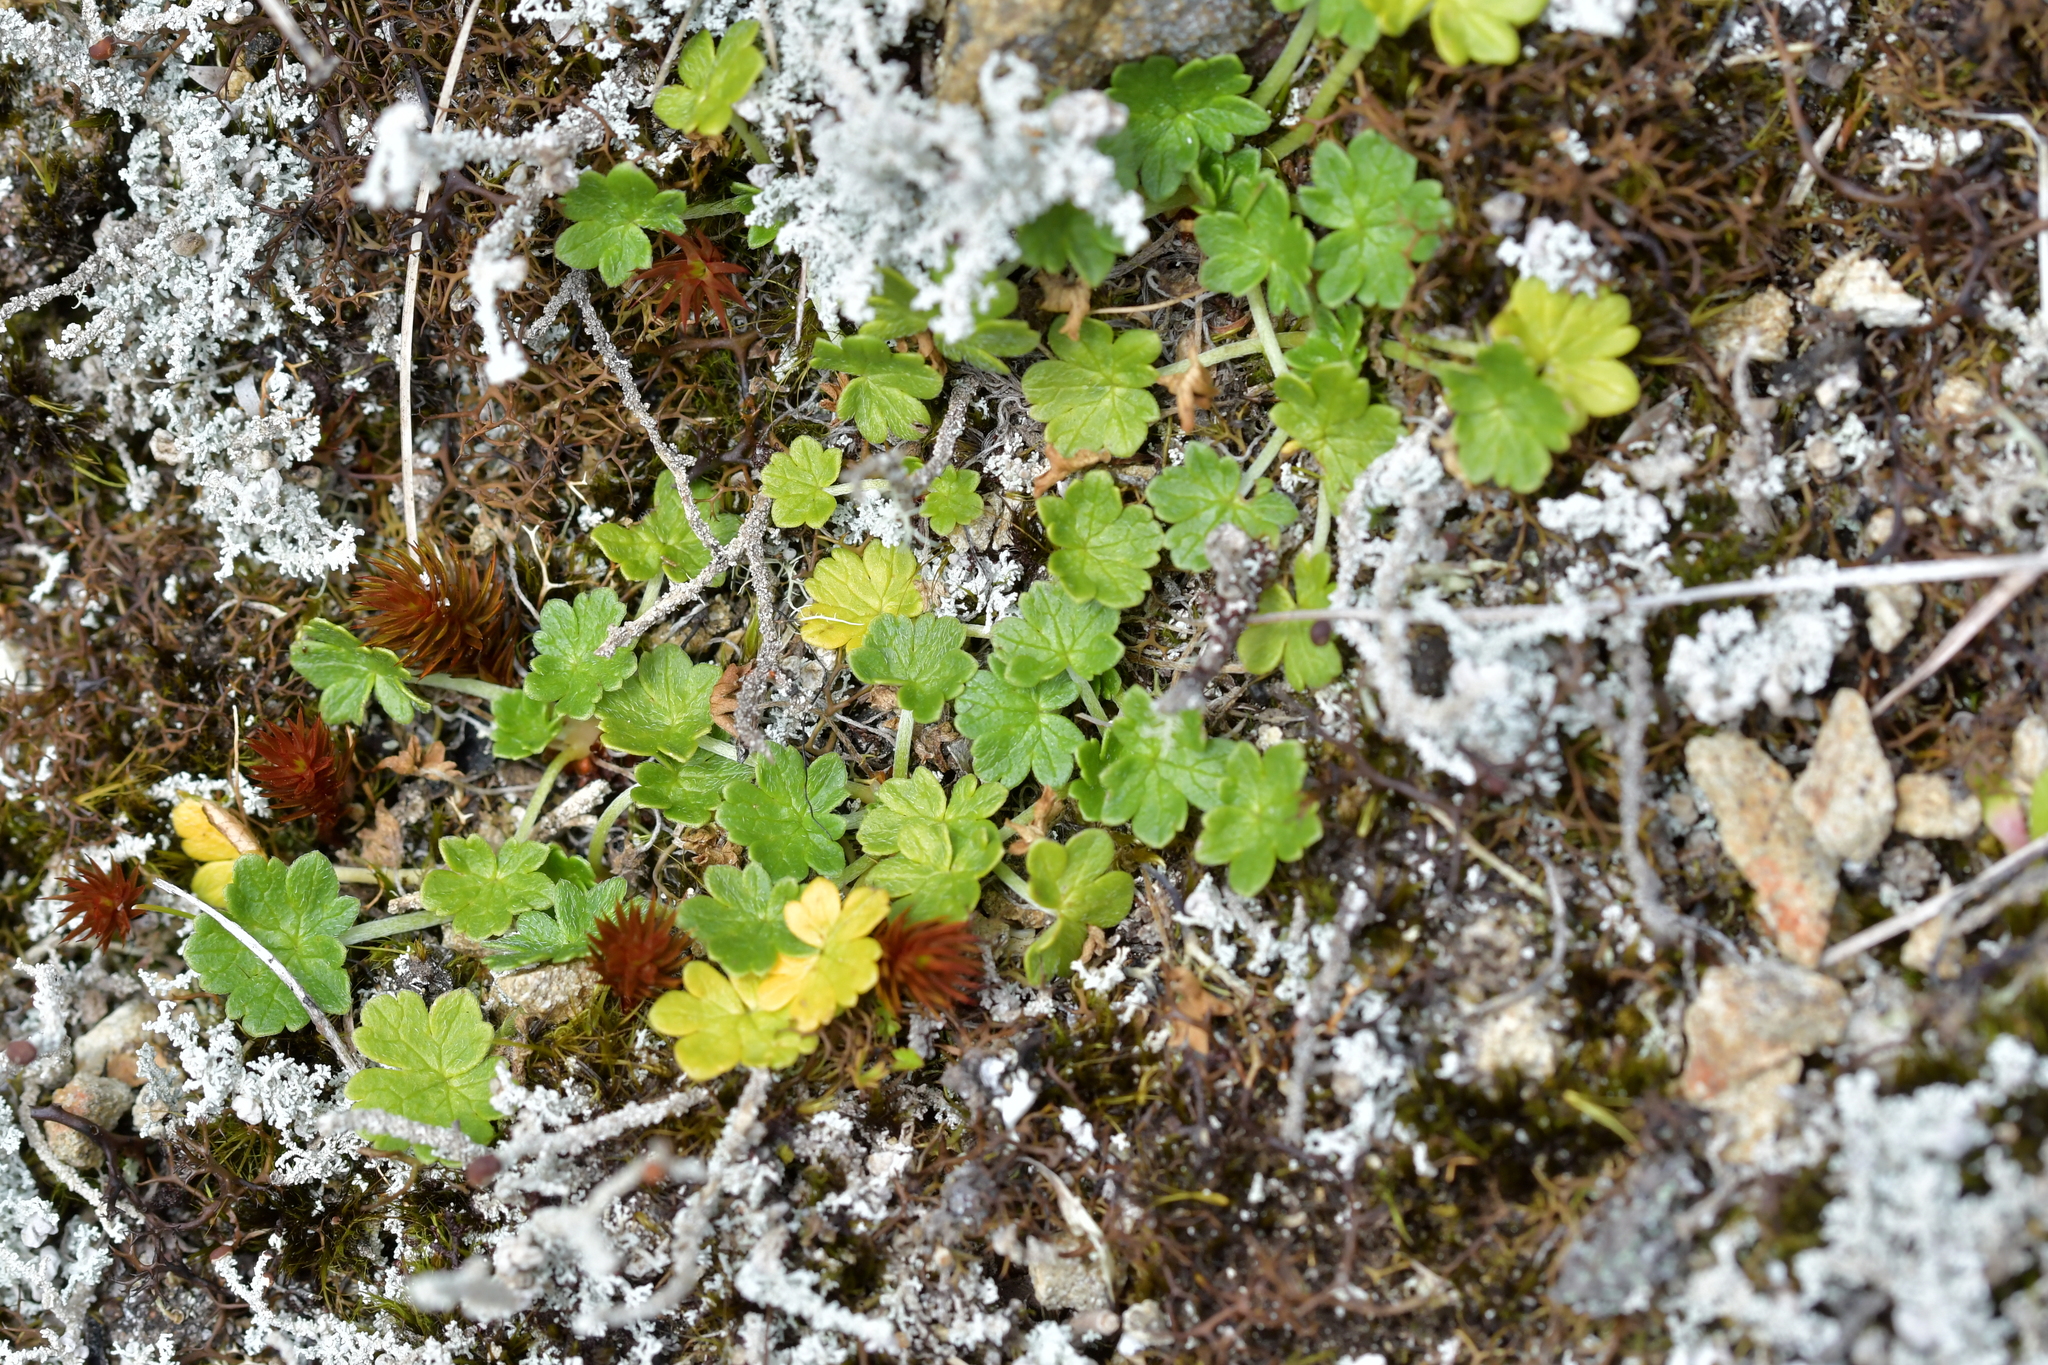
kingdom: Plantae
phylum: Tracheophyta
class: Magnoliopsida
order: Geraniales
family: Geraniaceae
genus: Geranium
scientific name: Geranium brevicaule
